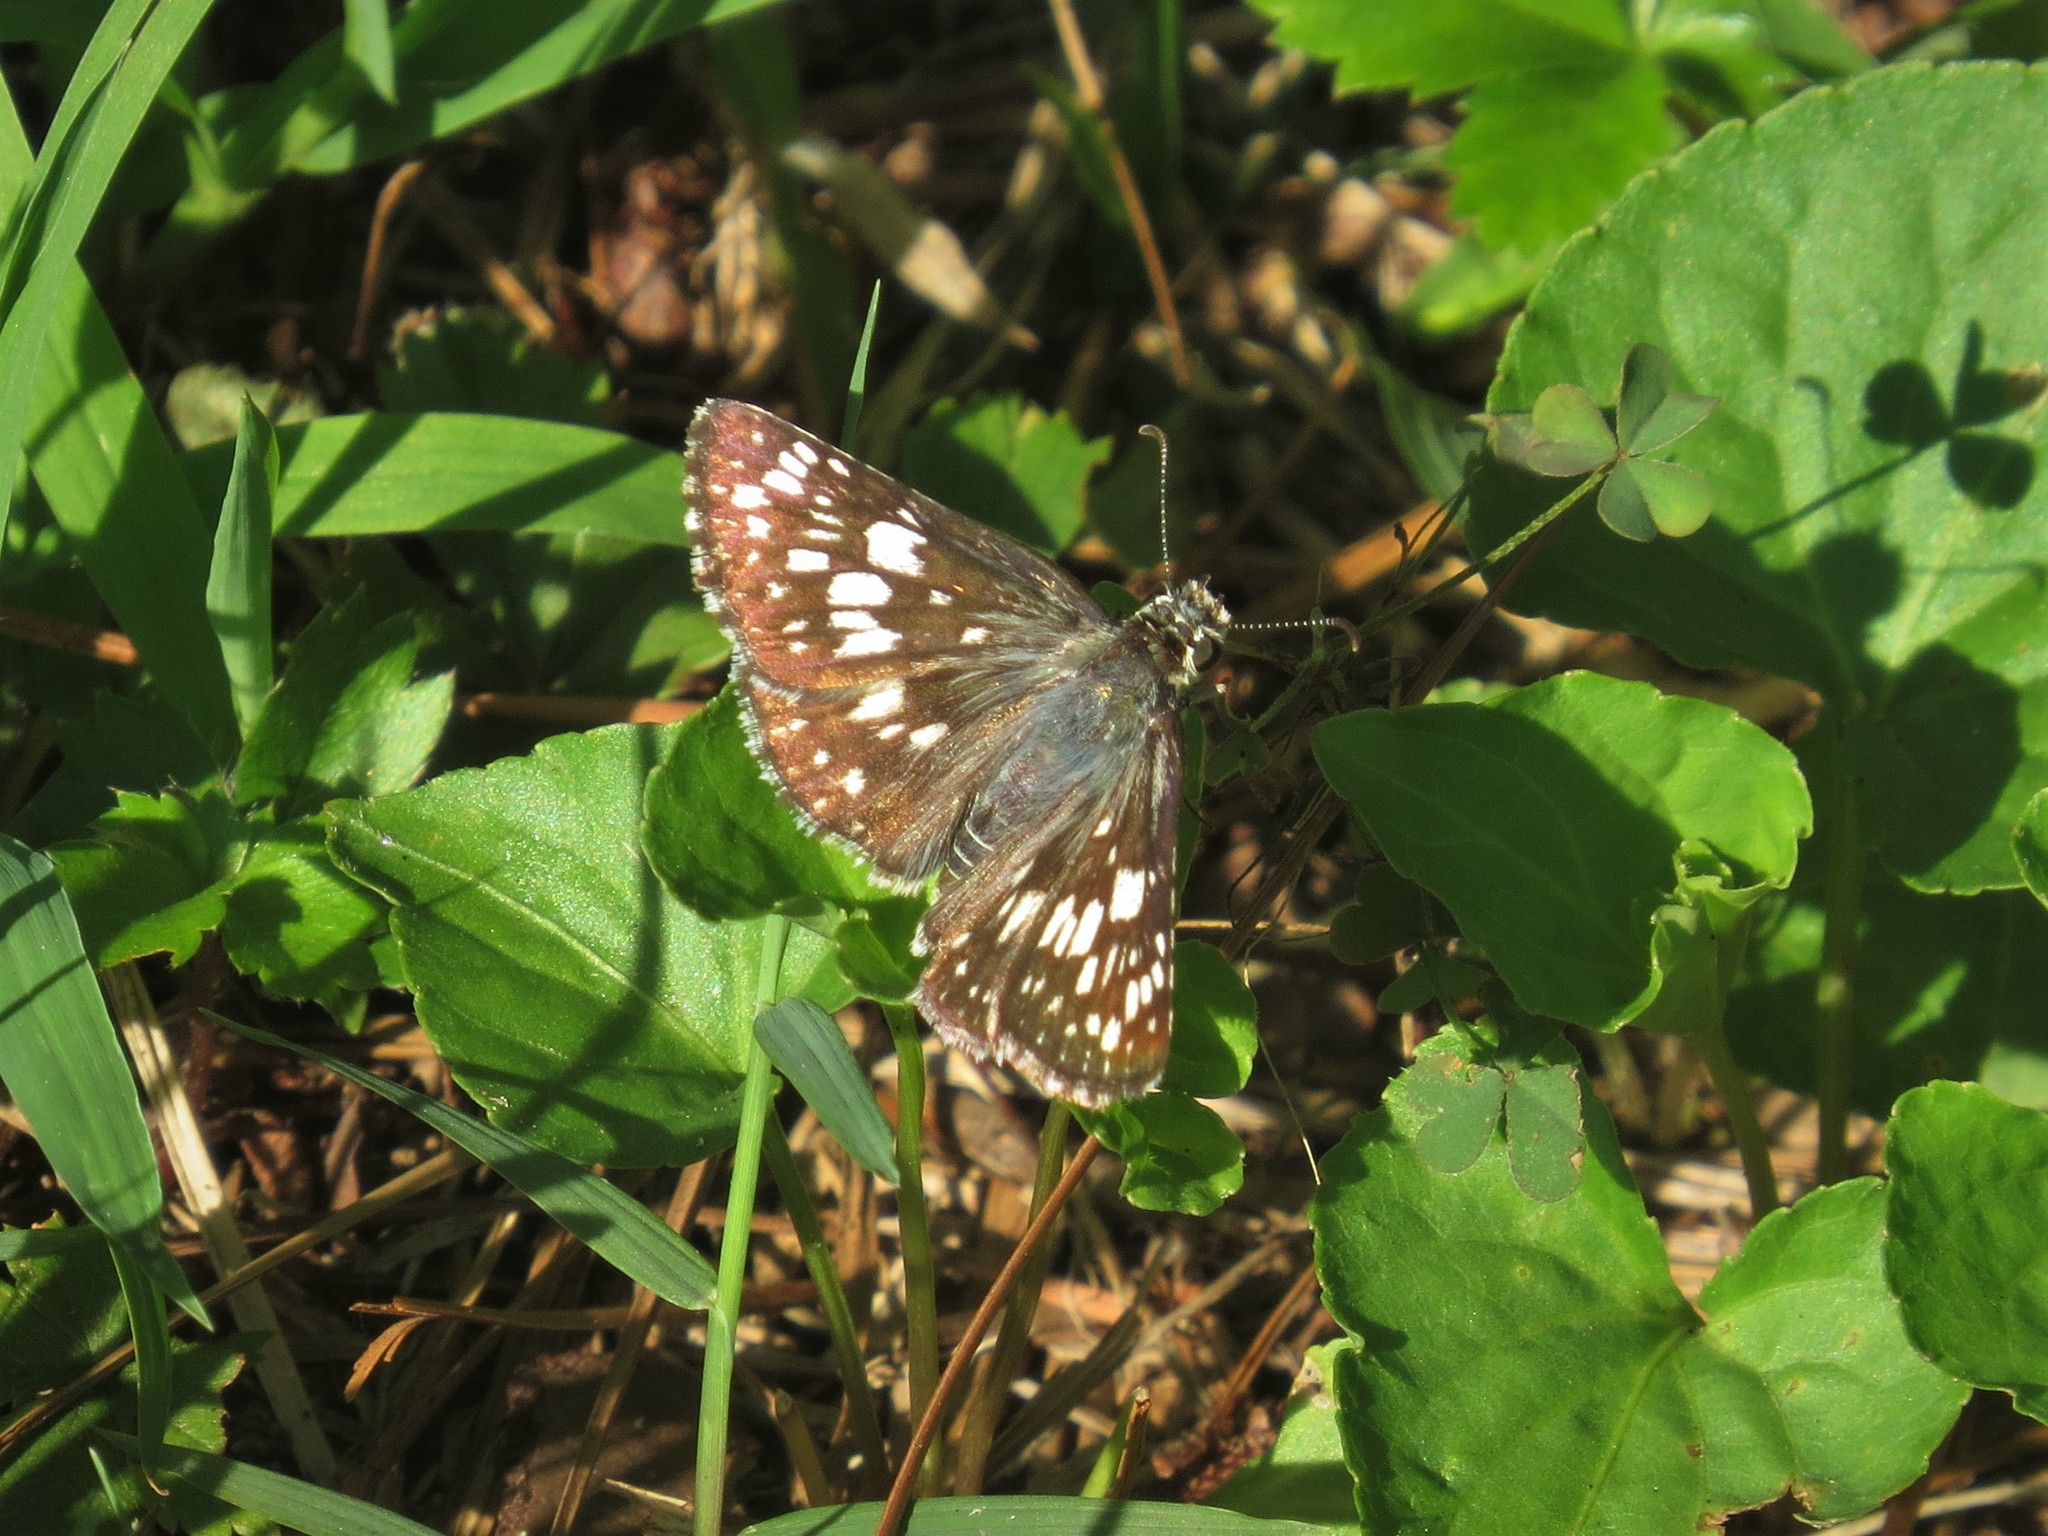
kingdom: Animalia
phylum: Arthropoda
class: Insecta
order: Lepidoptera
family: Hesperiidae
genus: Burnsius
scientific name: Burnsius communis
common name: Common checkered-skipper
